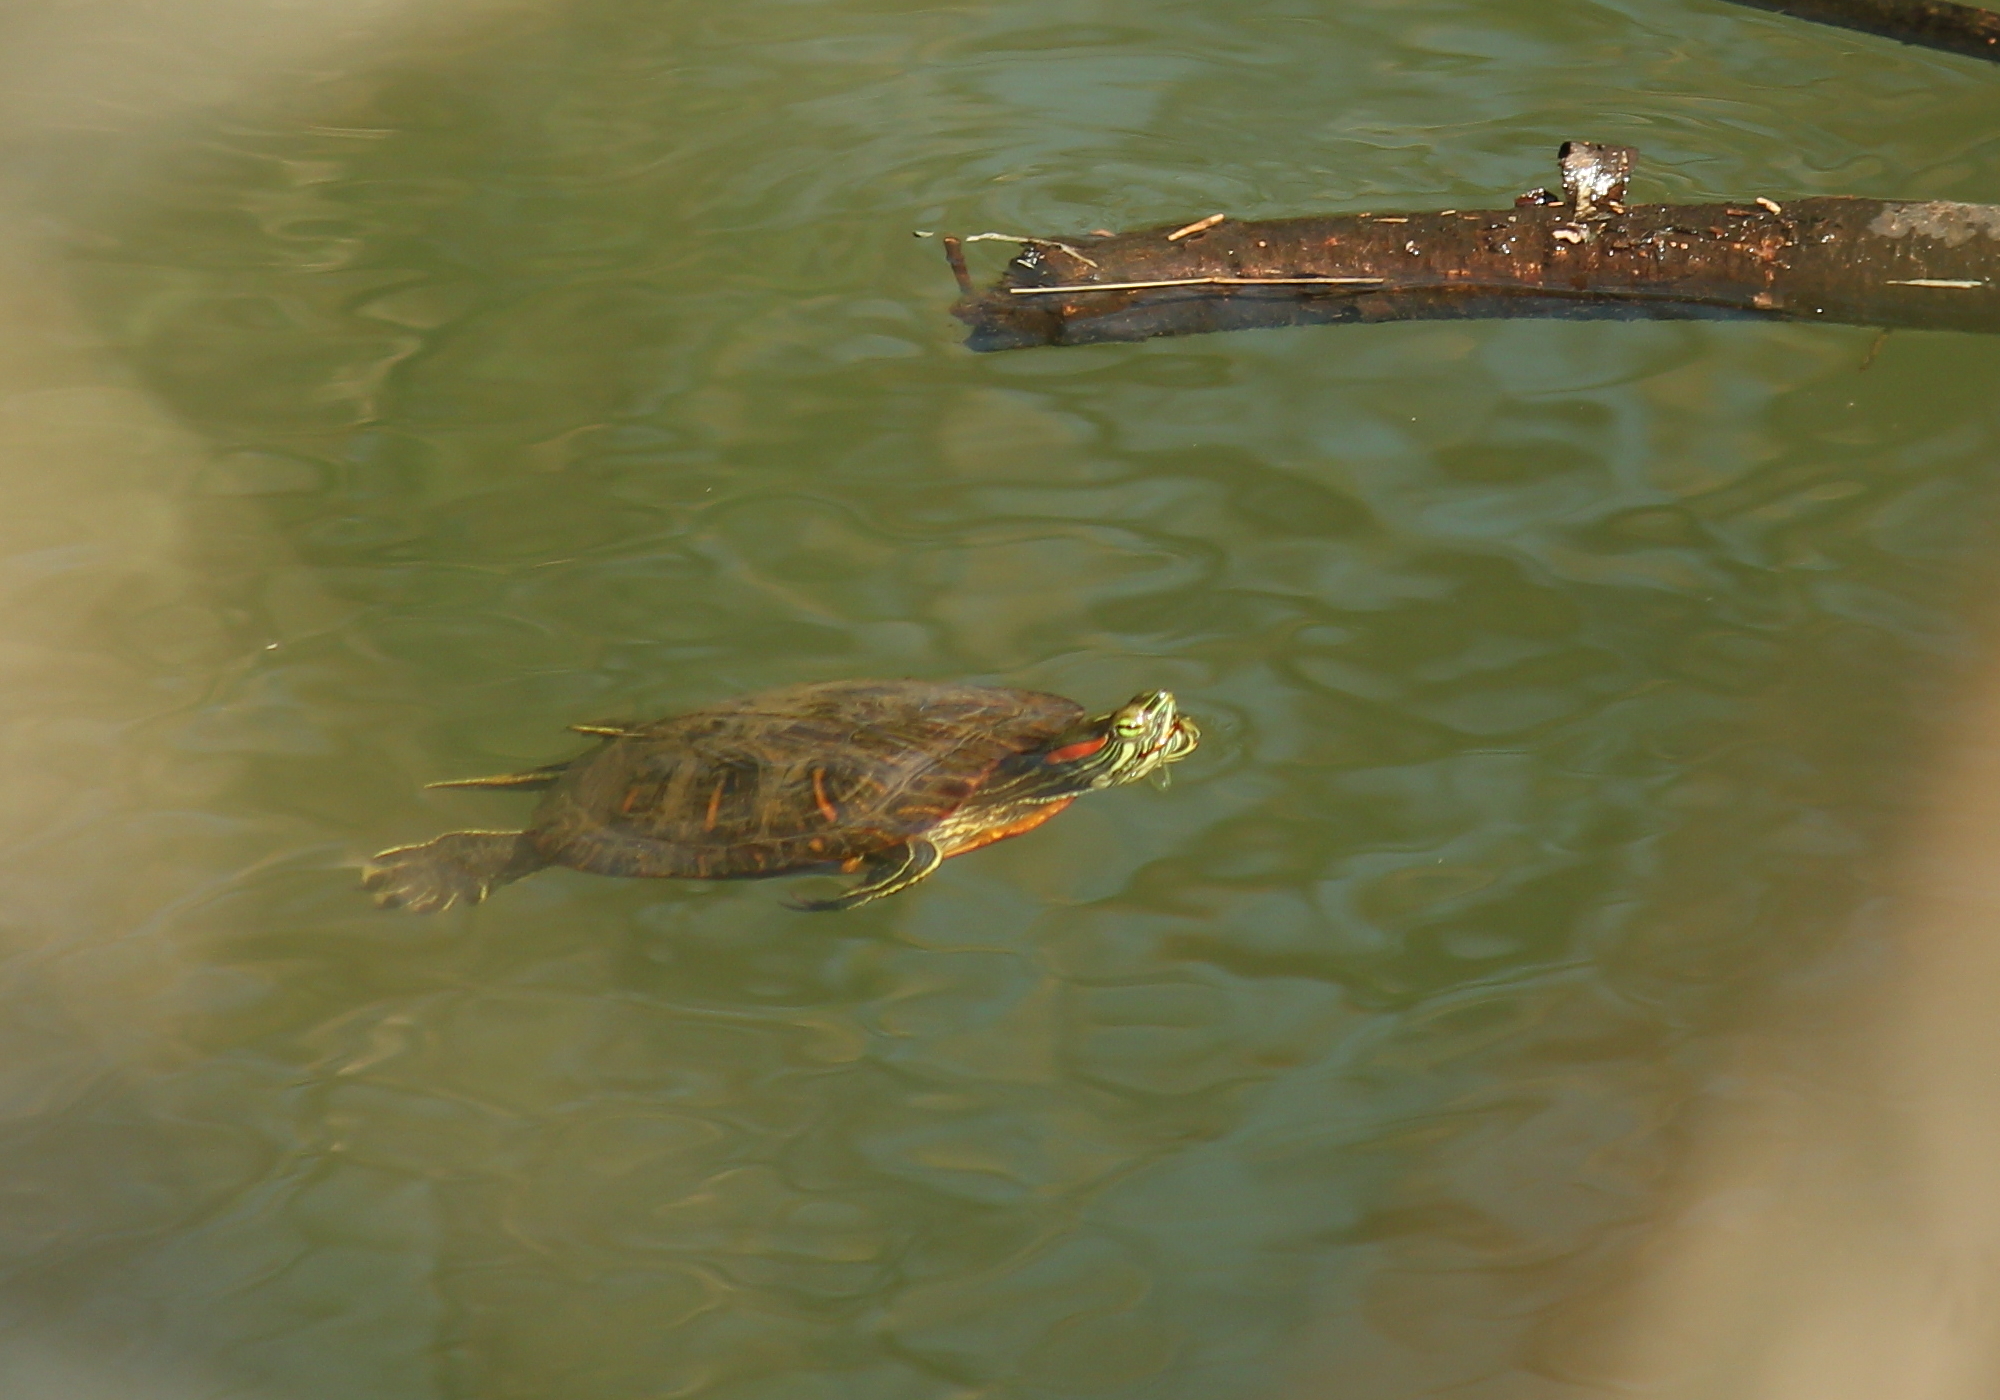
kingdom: Animalia
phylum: Chordata
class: Testudines
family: Emydidae
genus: Trachemys
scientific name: Trachemys scripta
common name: Slider
